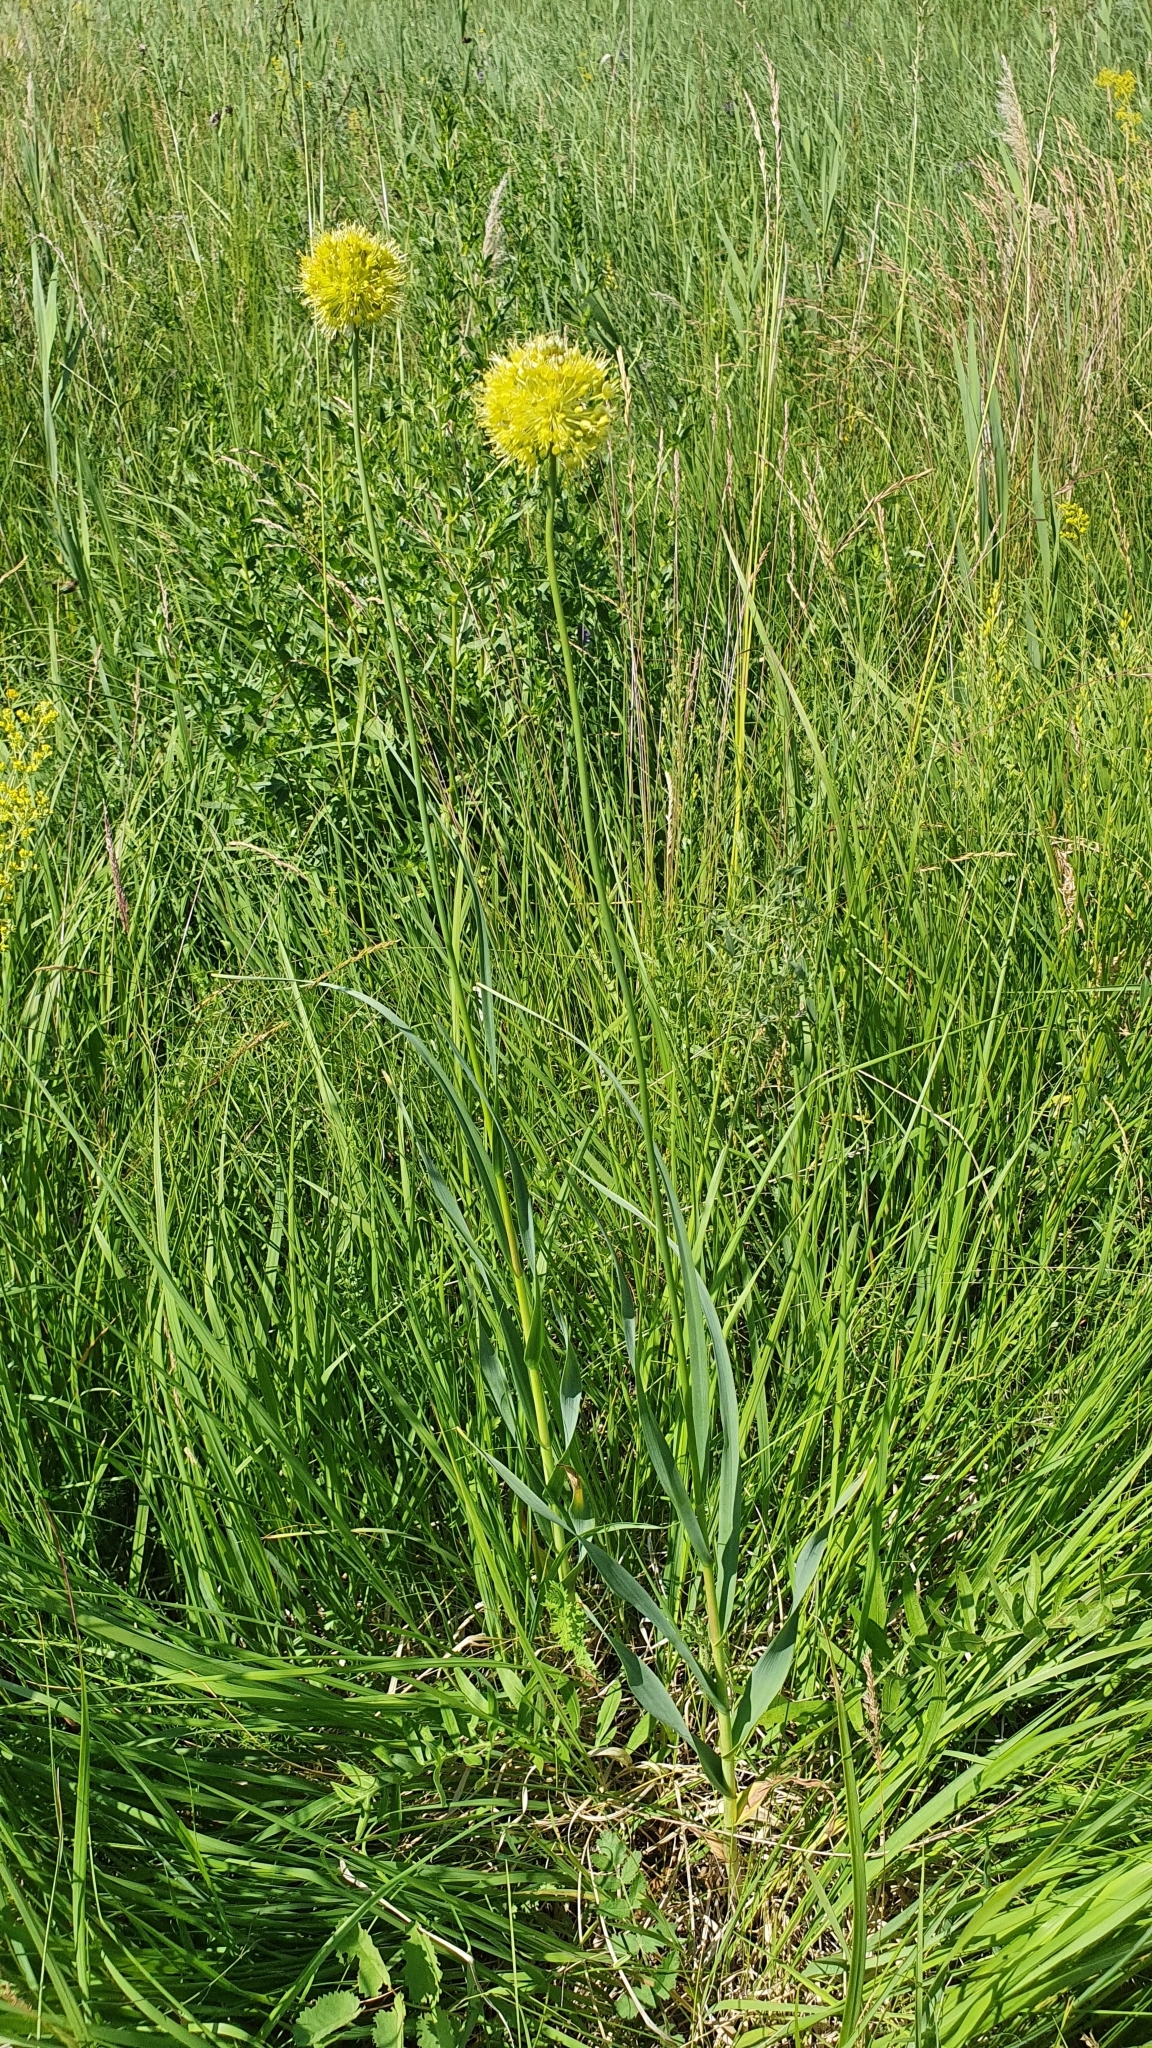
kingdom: Plantae
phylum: Tracheophyta
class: Liliopsida
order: Asparagales
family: Amaryllidaceae
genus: Allium
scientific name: Allium obliquum
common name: Oblique onion
